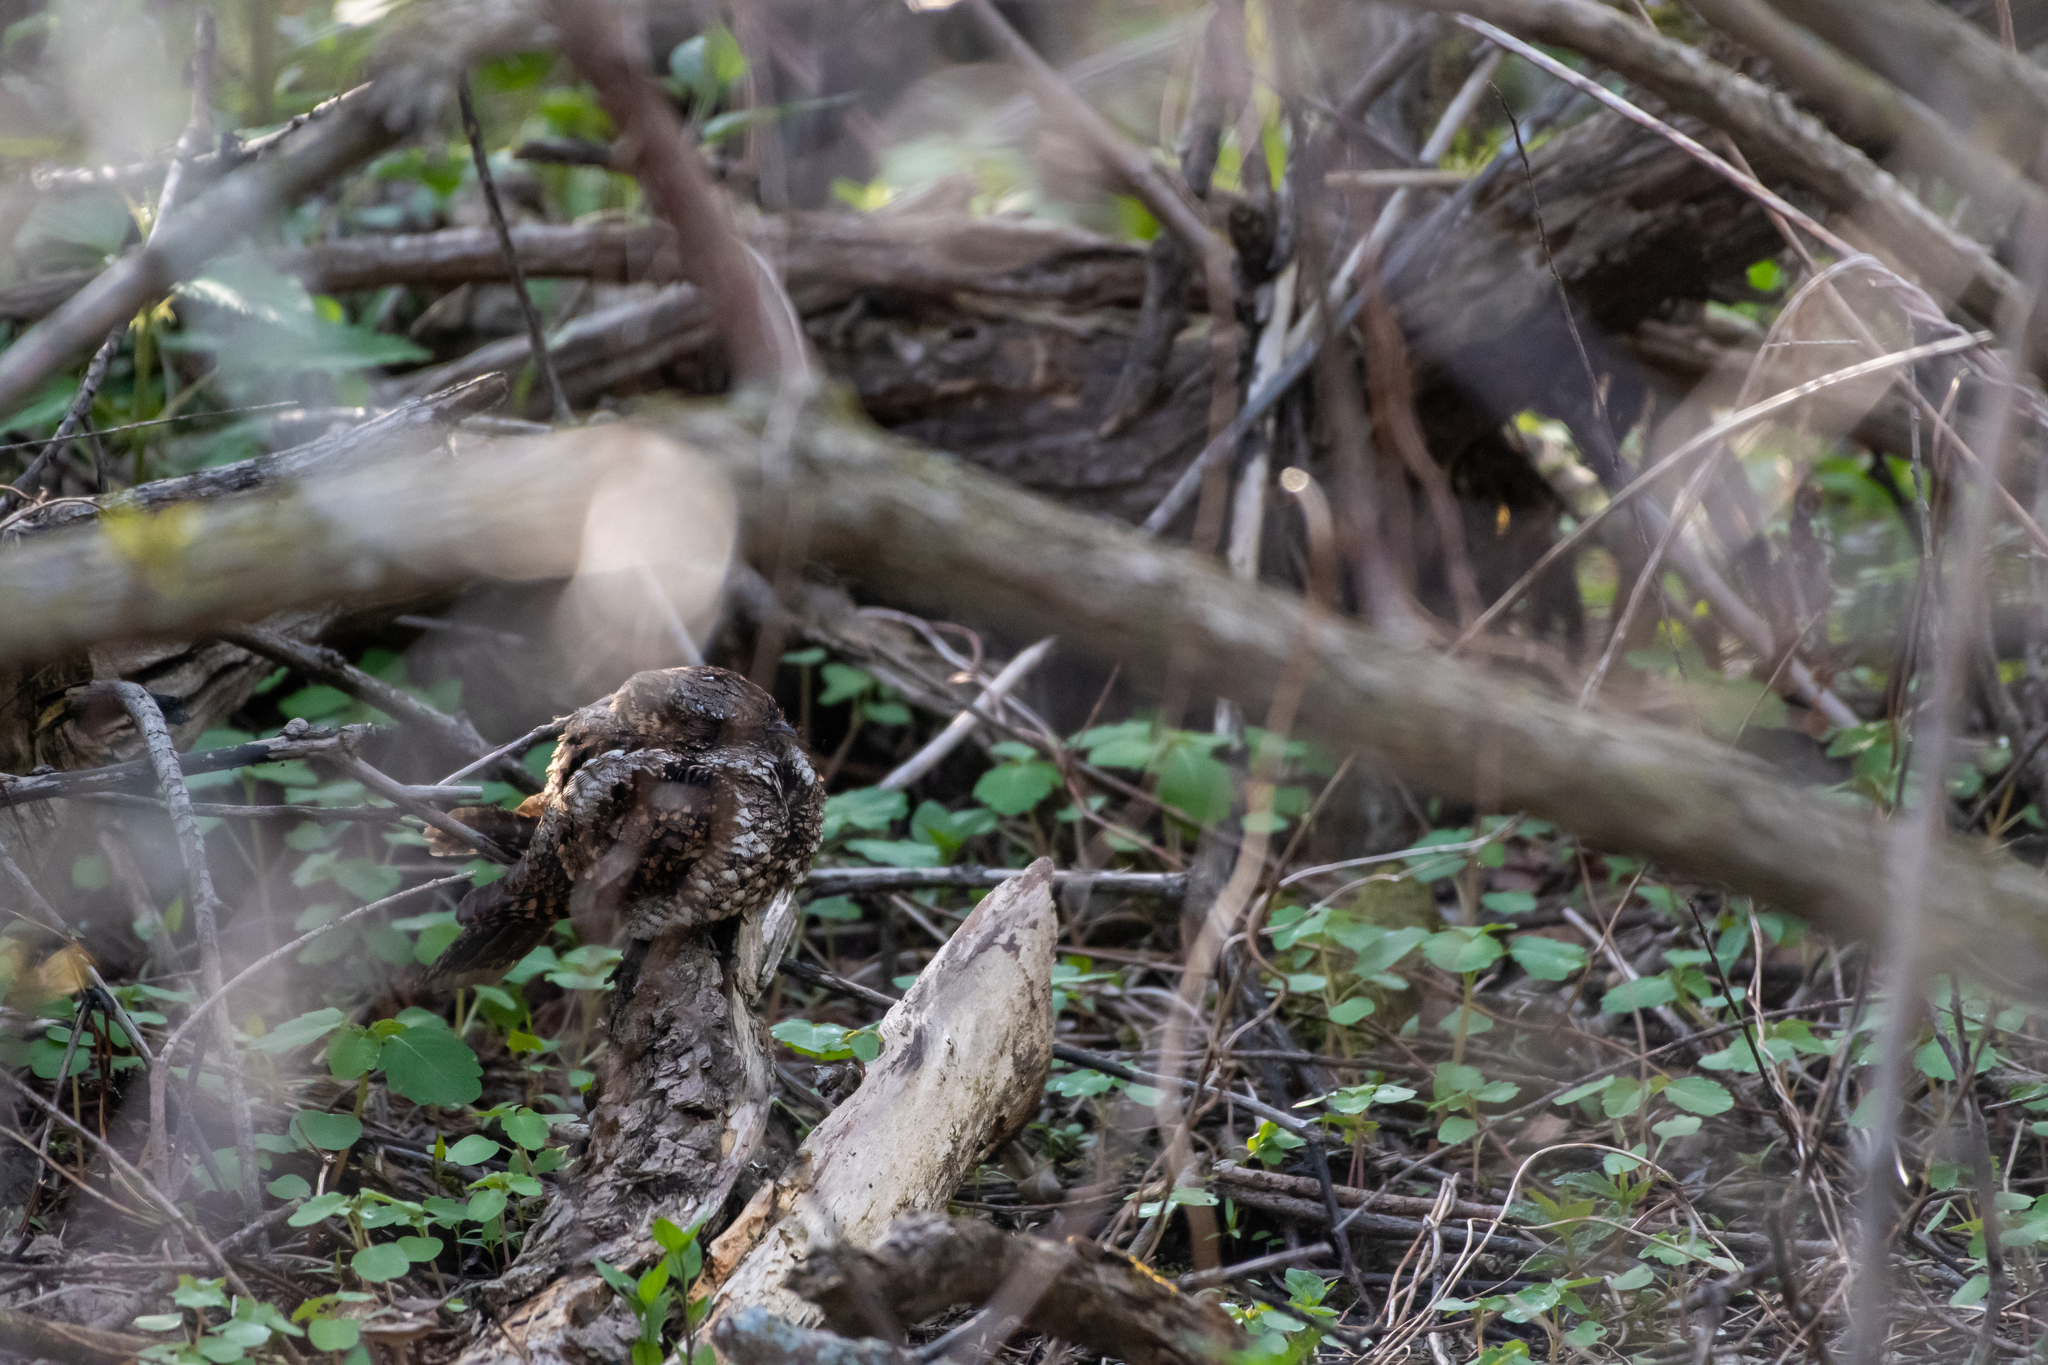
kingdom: Animalia
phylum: Chordata
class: Aves
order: Caprimulgiformes
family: Caprimulgidae
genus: Antrostomus
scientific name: Antrostomus vociferus
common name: Eastern whip-poor-will
